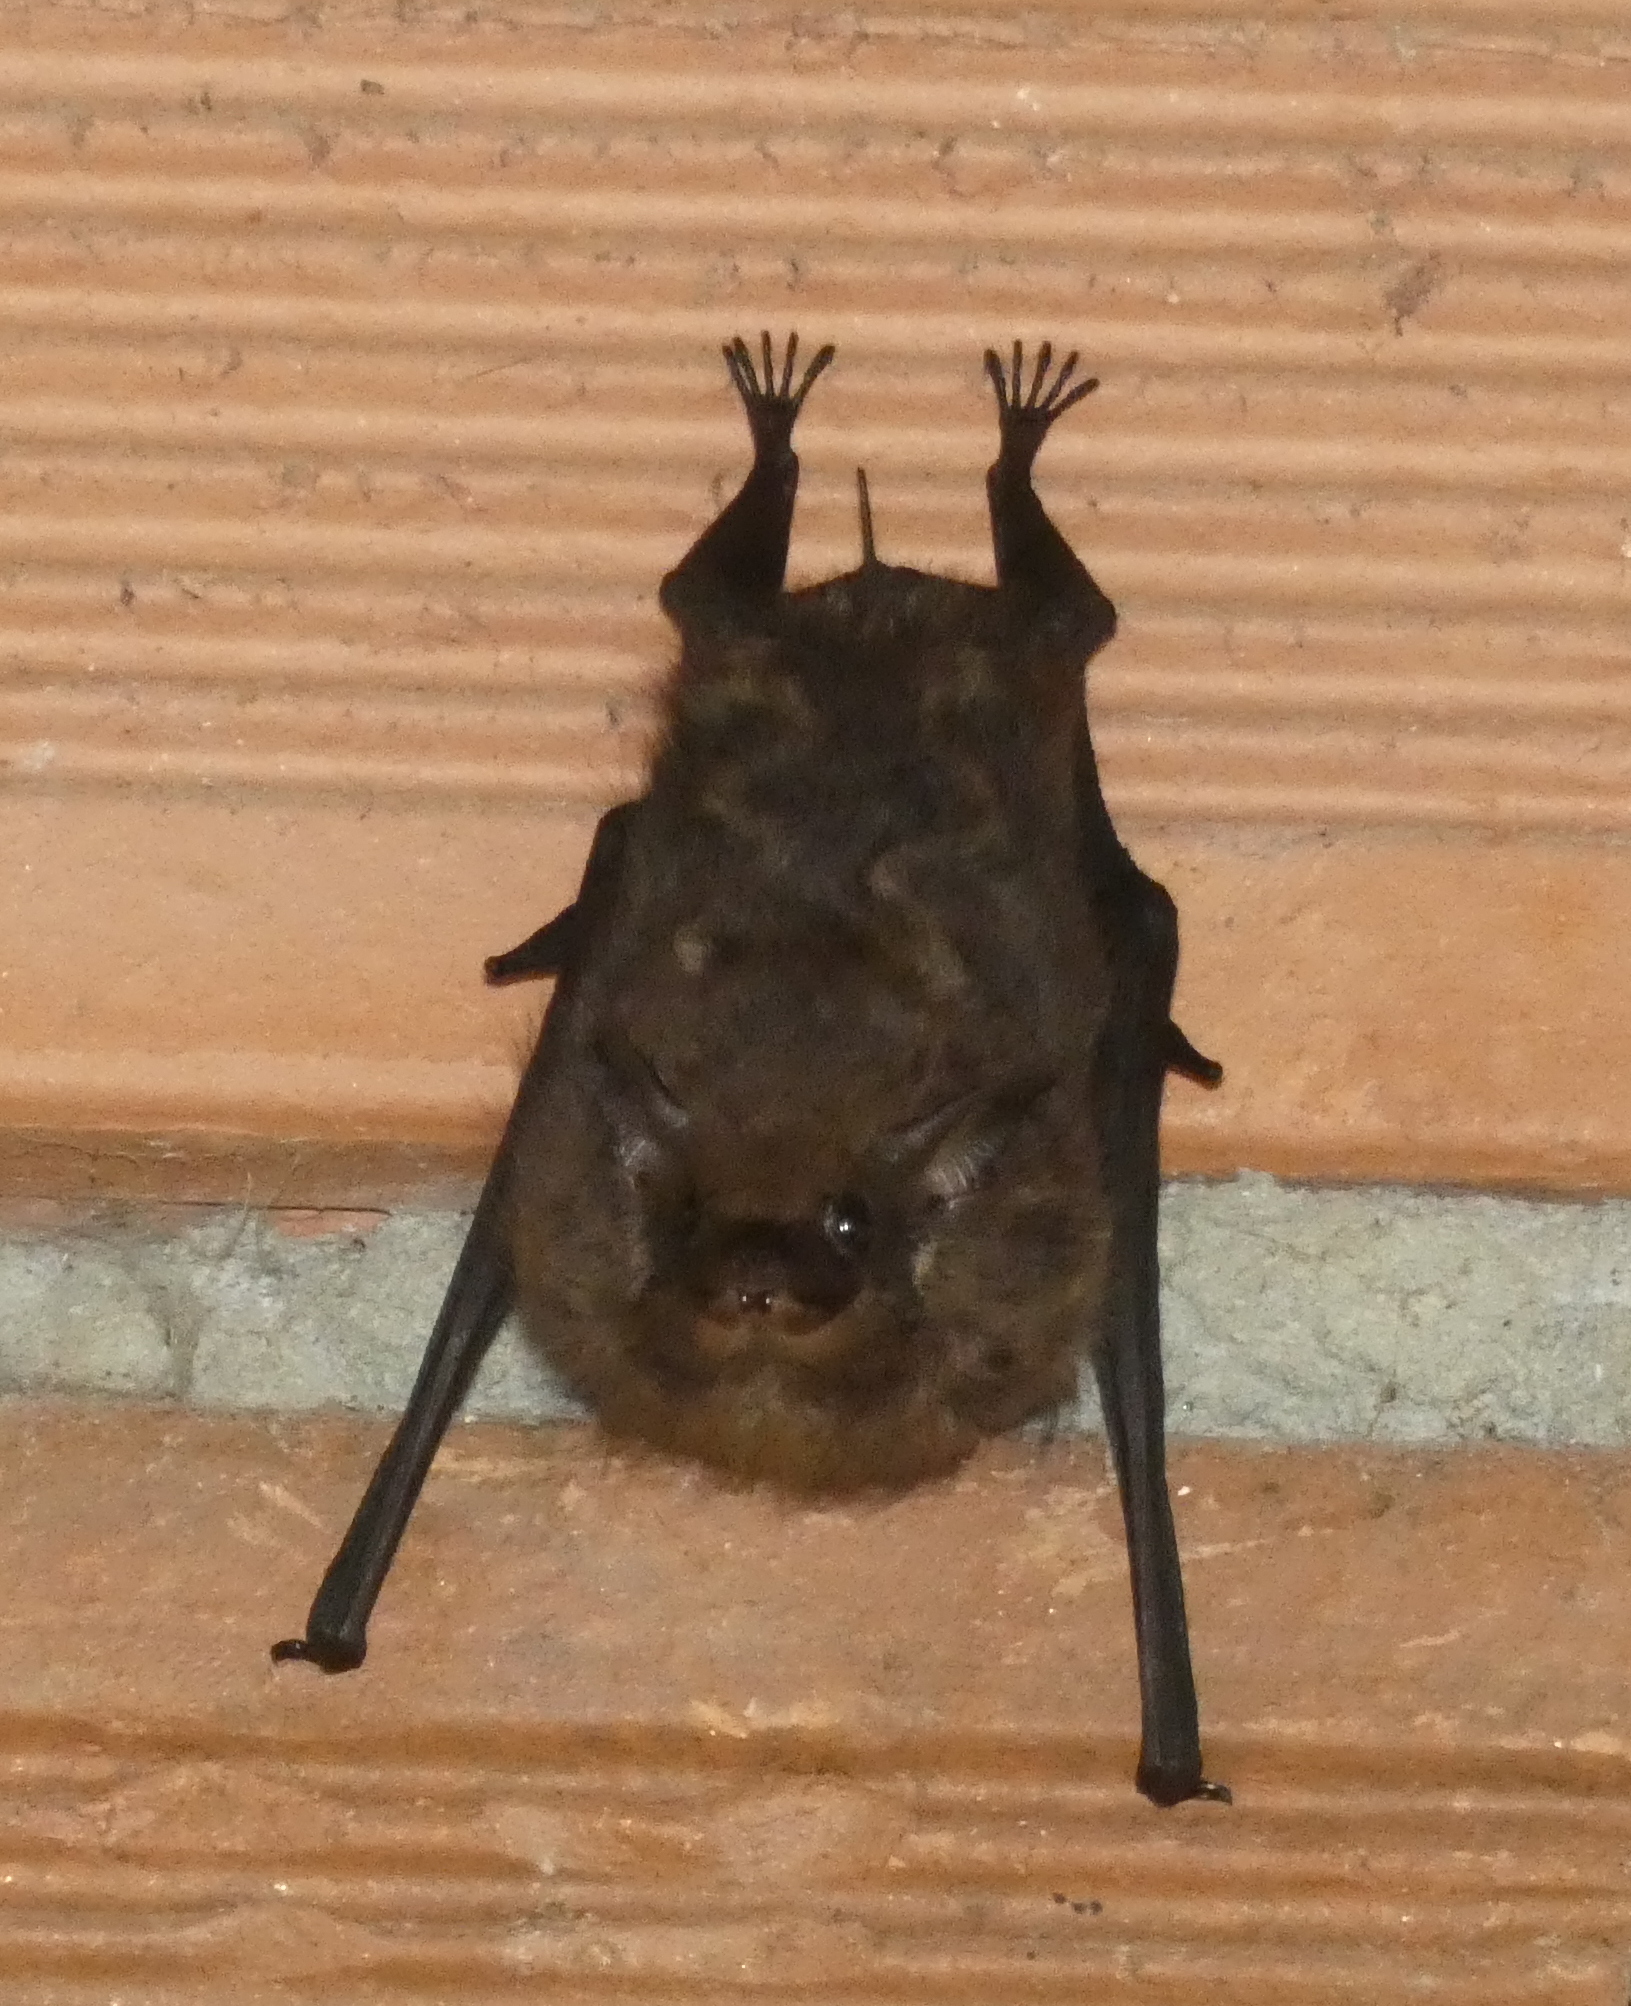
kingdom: Animalia
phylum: Chordata
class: Mammalia
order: Chiroptera
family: Emballonuridae
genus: Saccopteryx
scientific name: Saccopteryx
